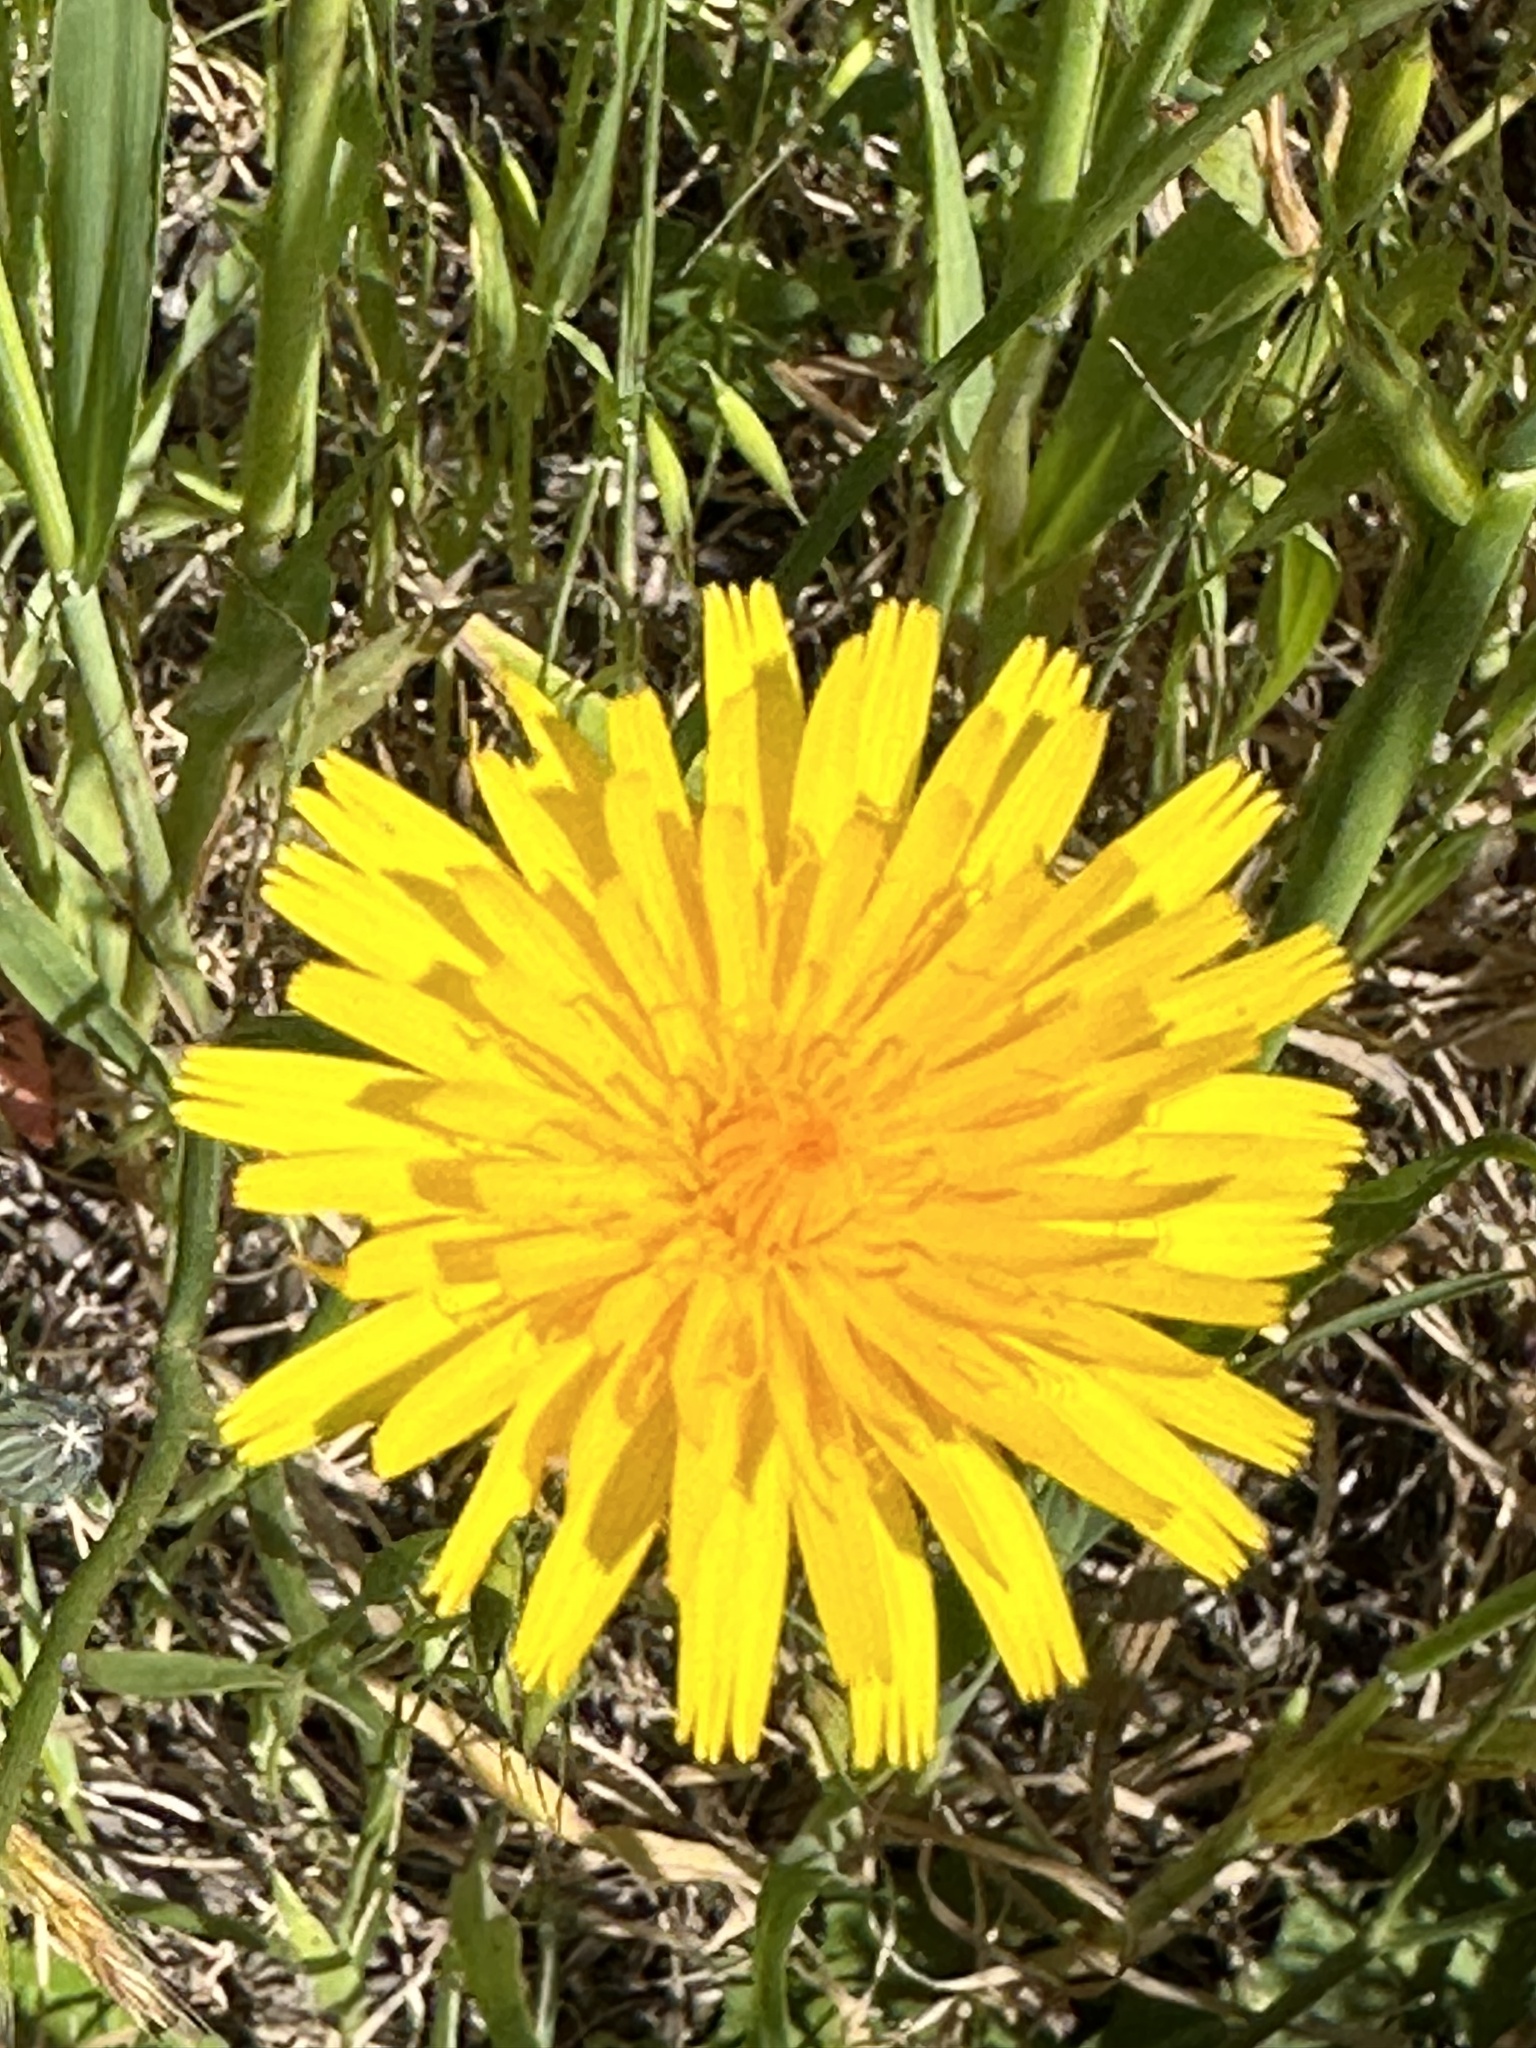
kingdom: Plantae
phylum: Tracheophyta
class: Magnoliopsida
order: Asterales
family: Asteraceae
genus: Hypochaeris
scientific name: Hypochaeris radicata
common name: Flatweed
